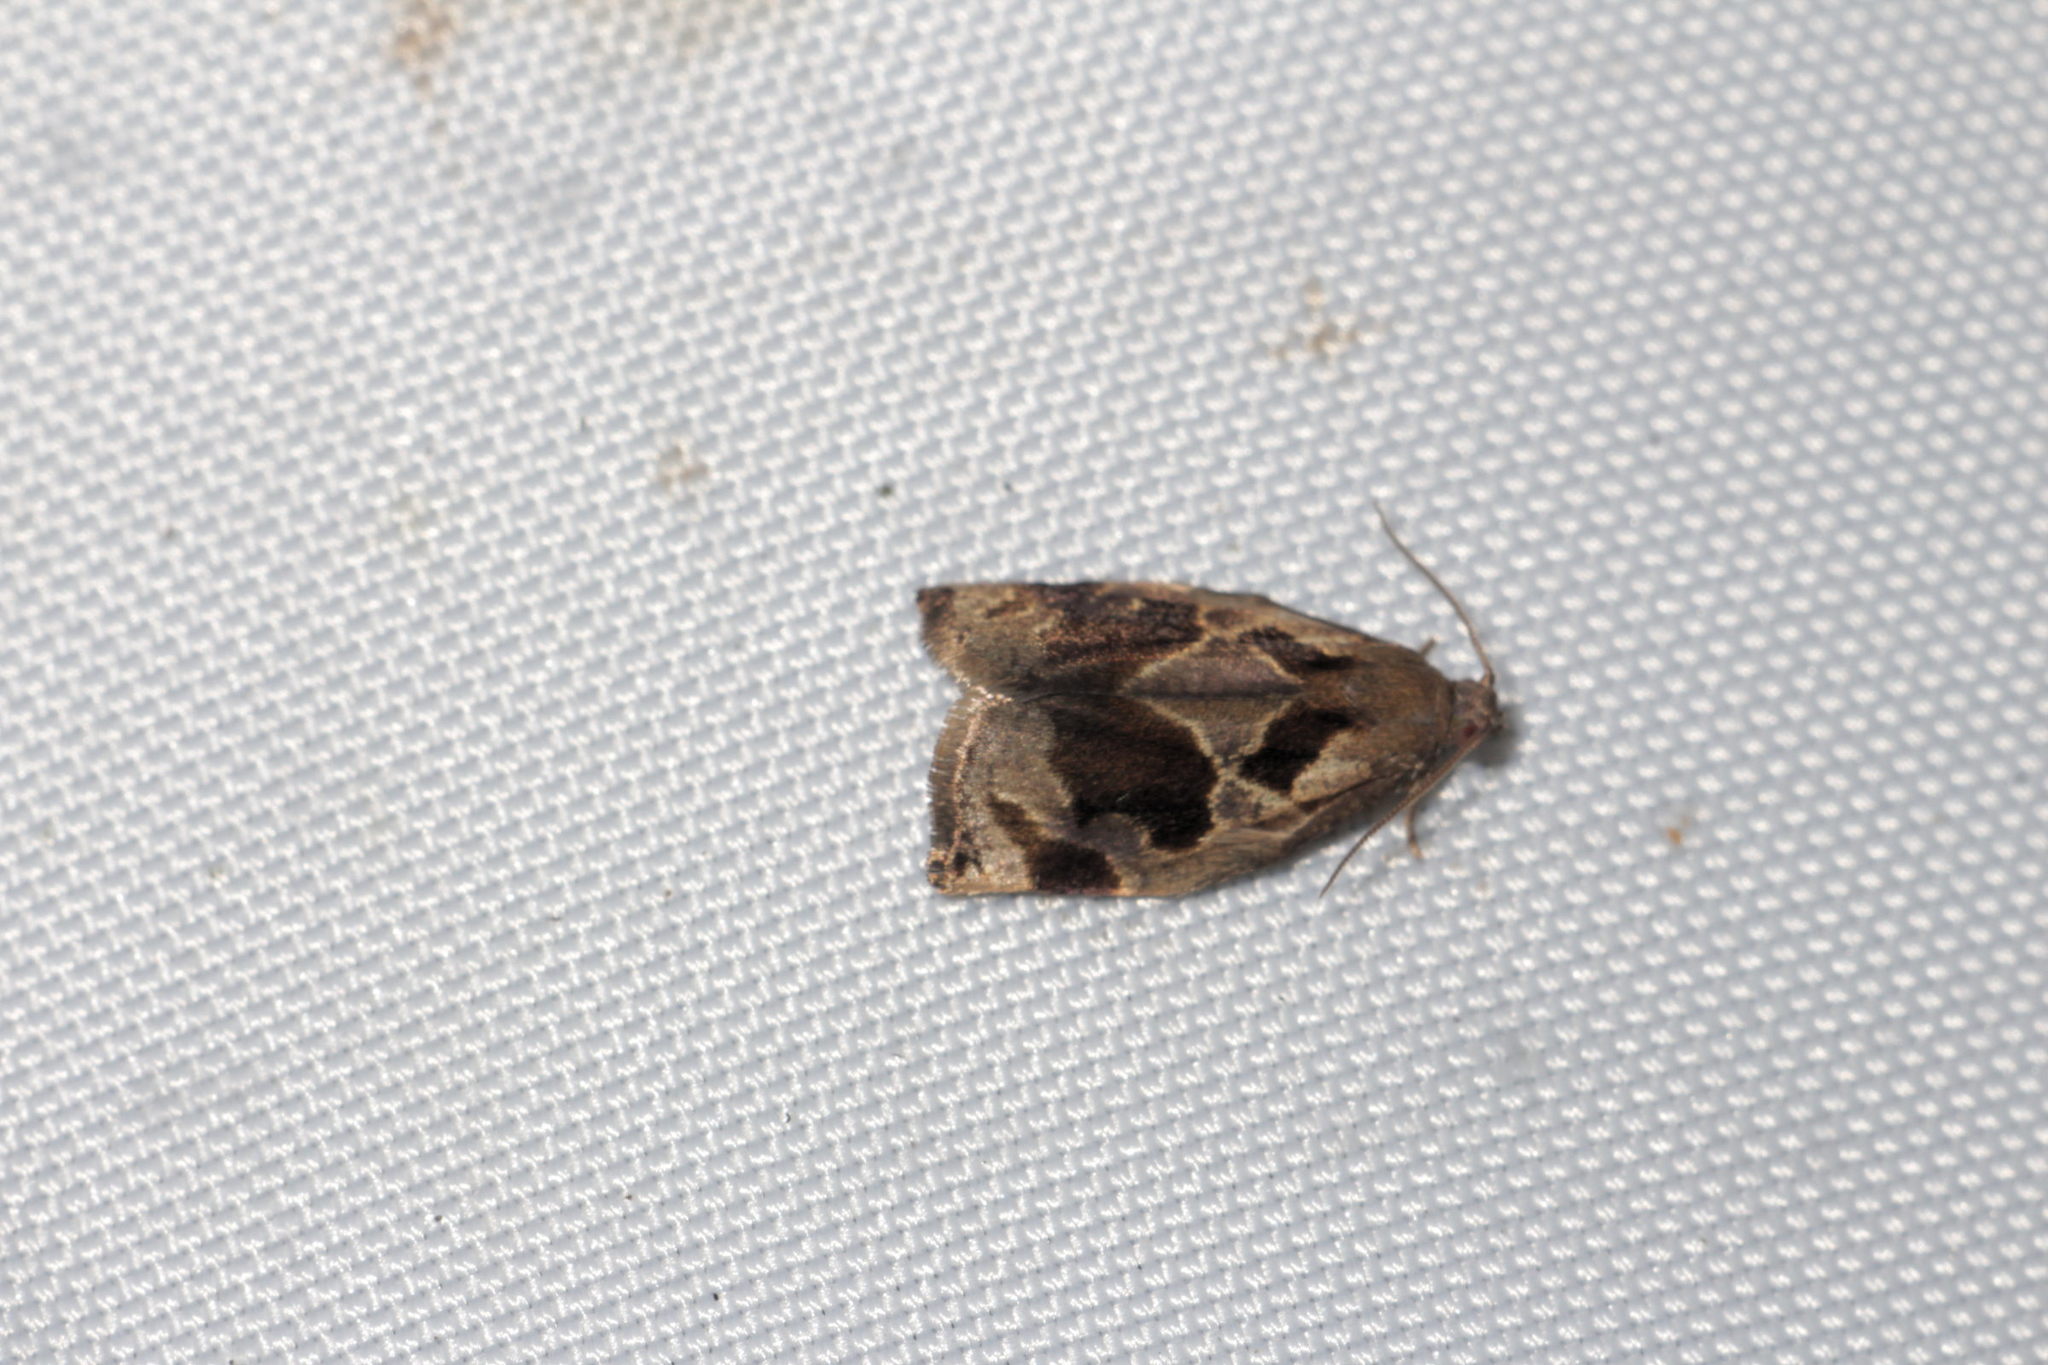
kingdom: Animalia
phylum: Arthropoda
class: Insecta
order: Lepidoptera
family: Tortricidae
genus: Archips
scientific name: Archips crataegana
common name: Brown oak tortrix
